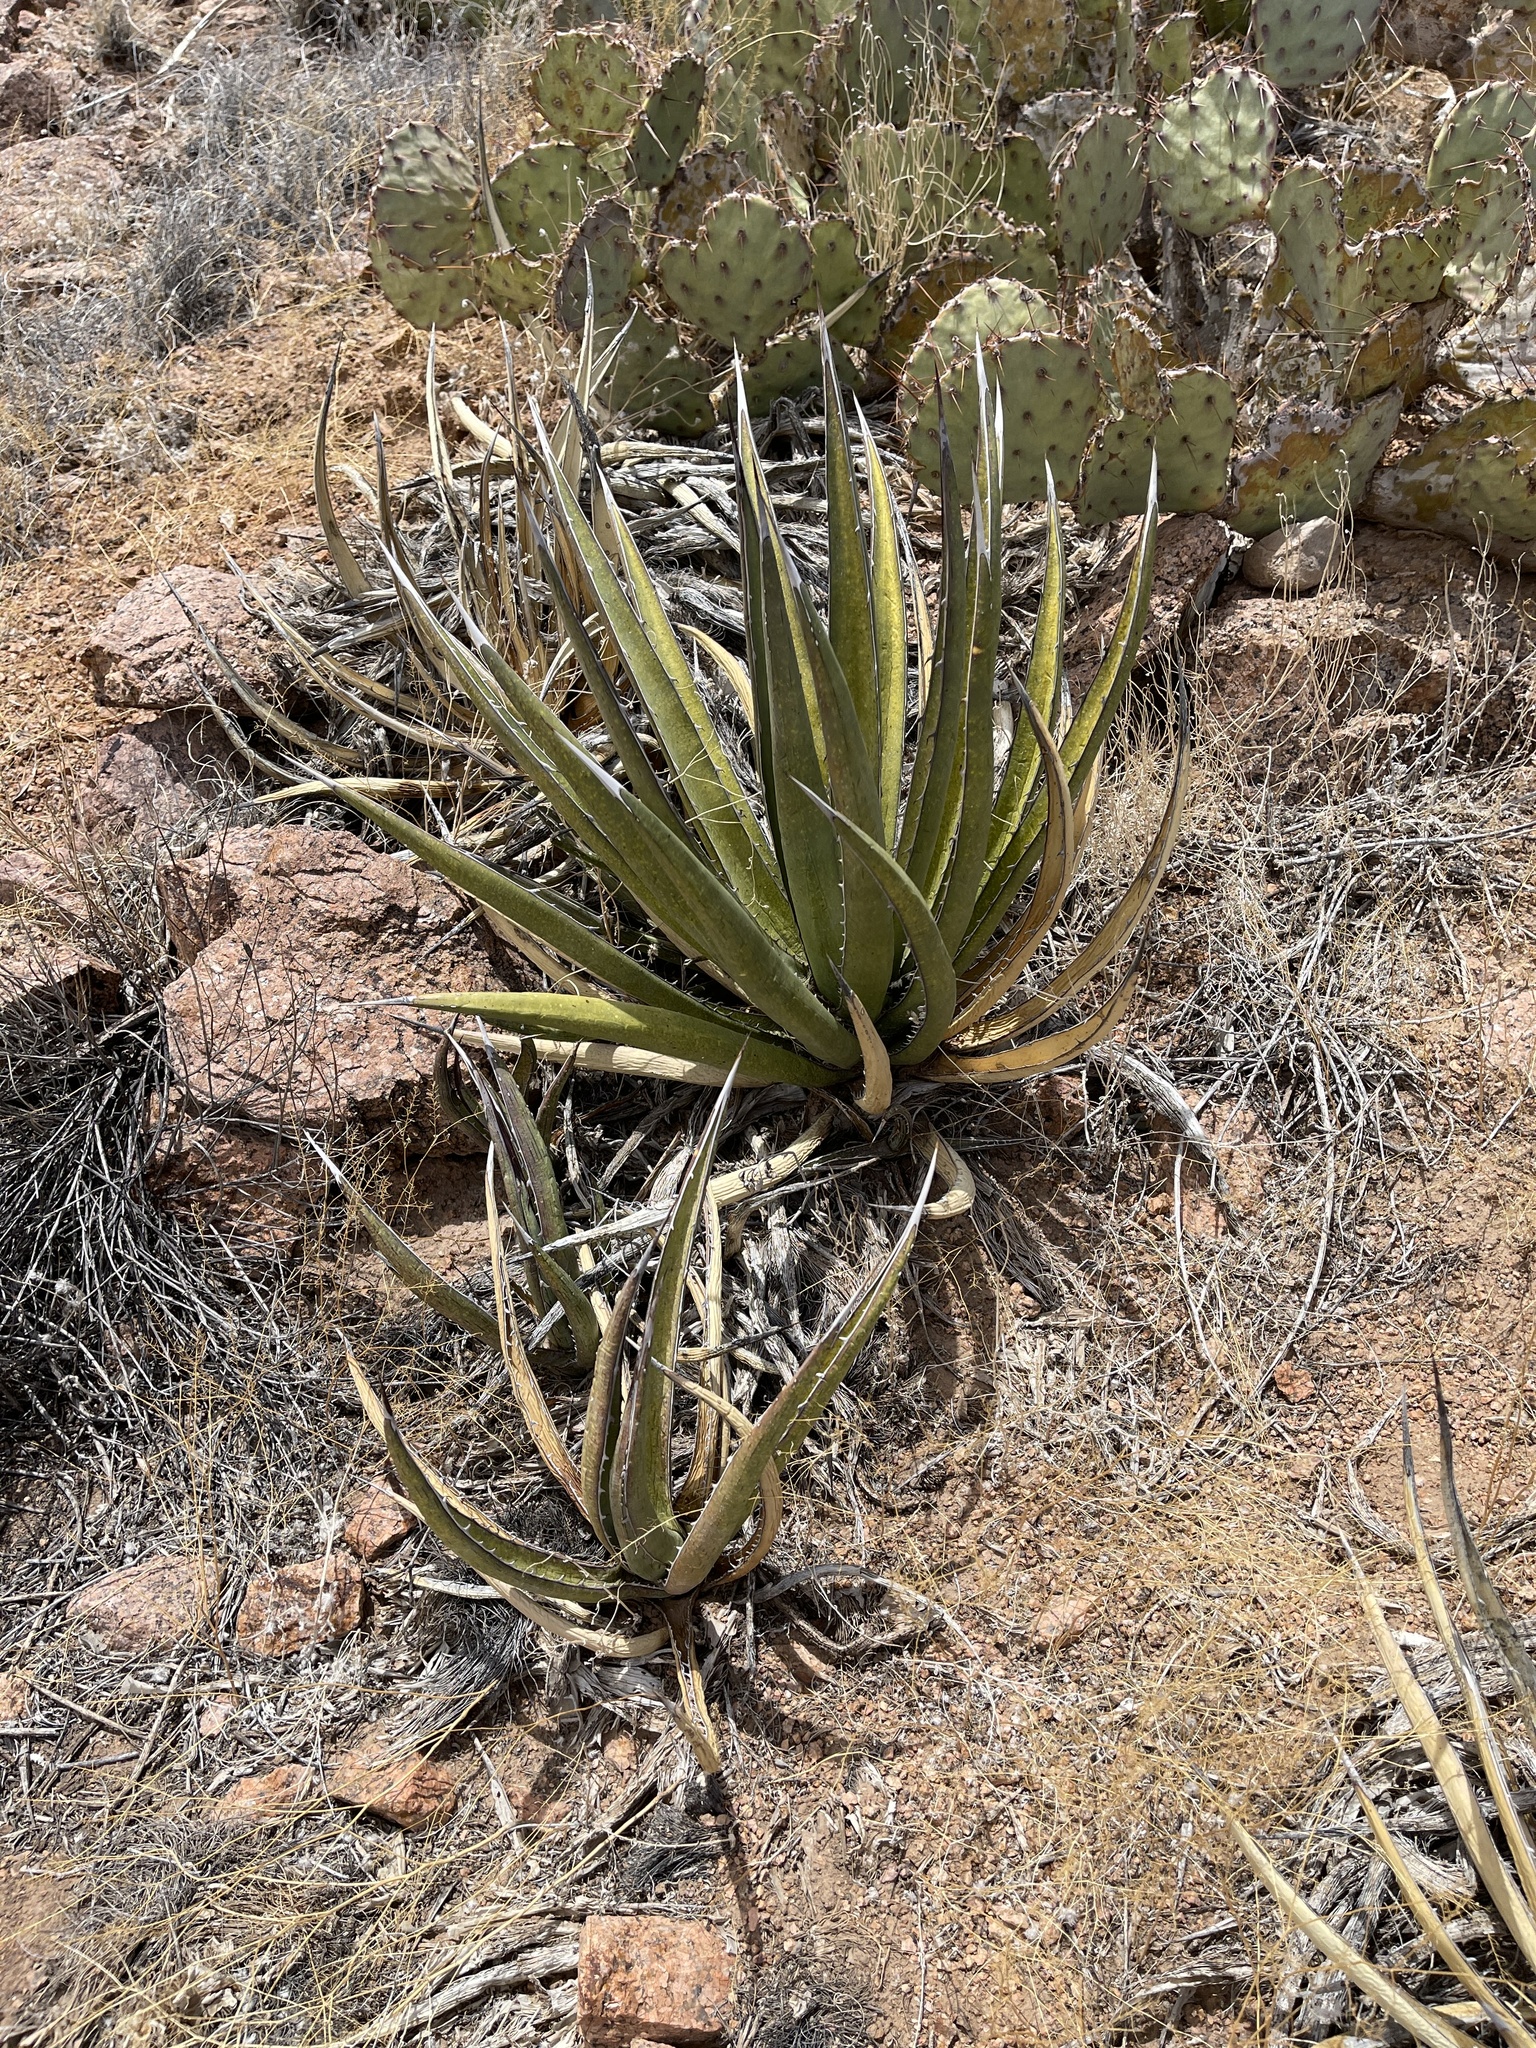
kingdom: Plantae
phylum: Tracheophyta
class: Liliopsida
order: Asparagales
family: Asparagaceae
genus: Agave
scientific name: Agave lechuguilla
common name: Lecheguilla agave
